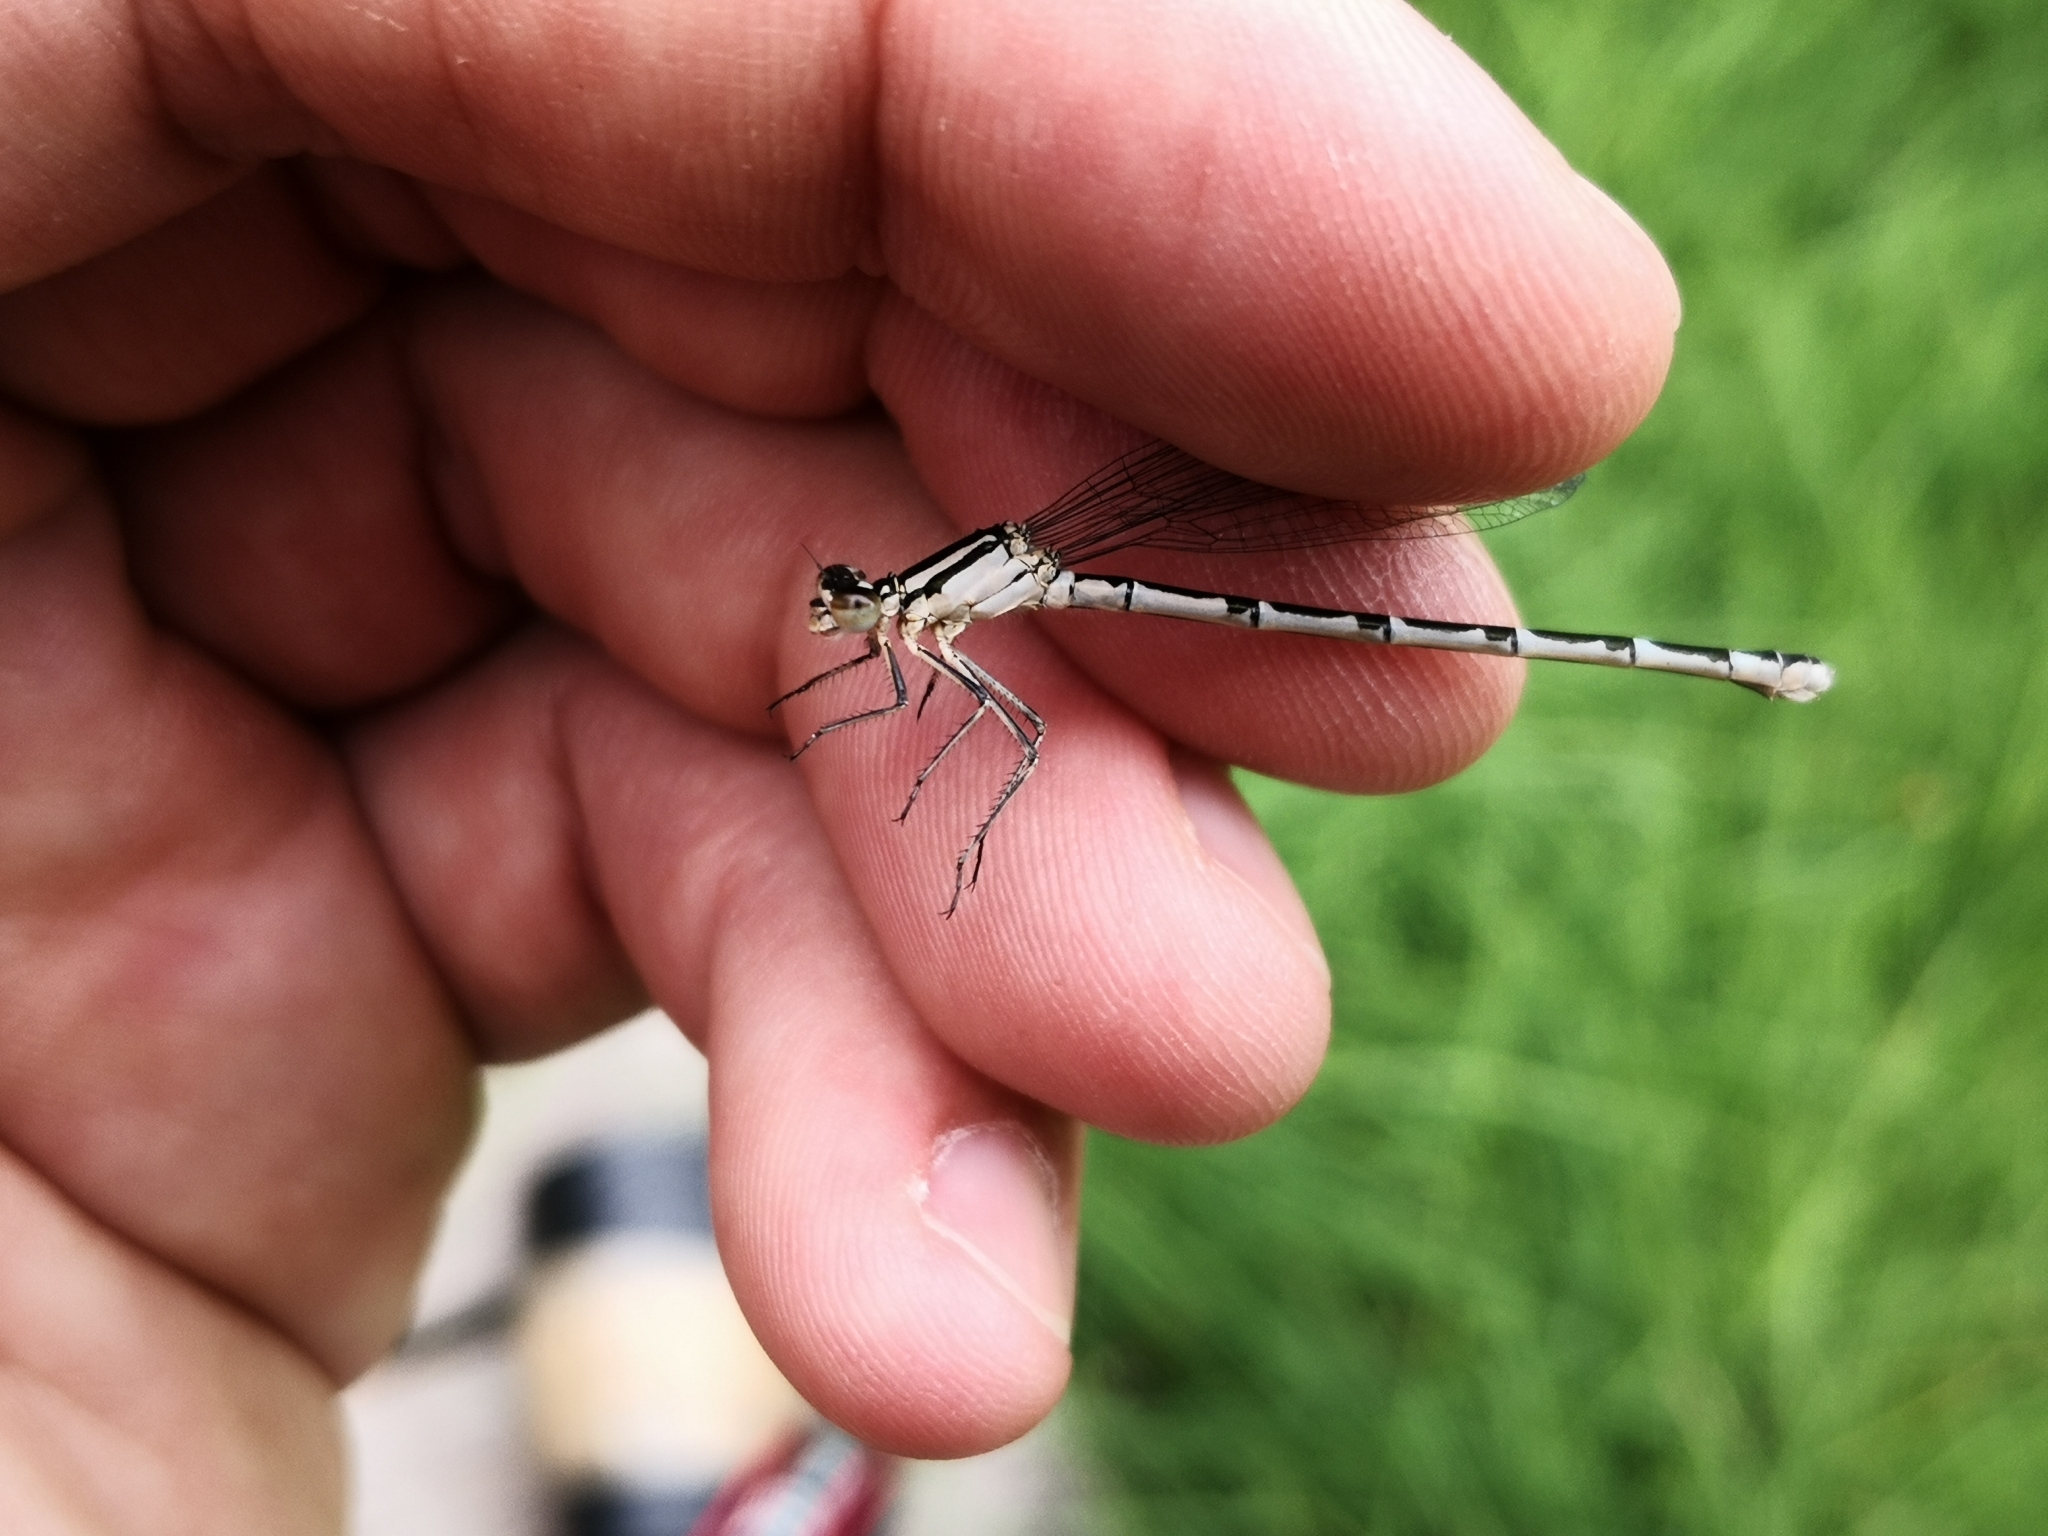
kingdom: Animalia
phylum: Arthropoda
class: Insecta
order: Odonata
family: Coenagrionidae
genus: Enallagma
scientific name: Enallagma cyathigerum
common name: Common blue damselfly
